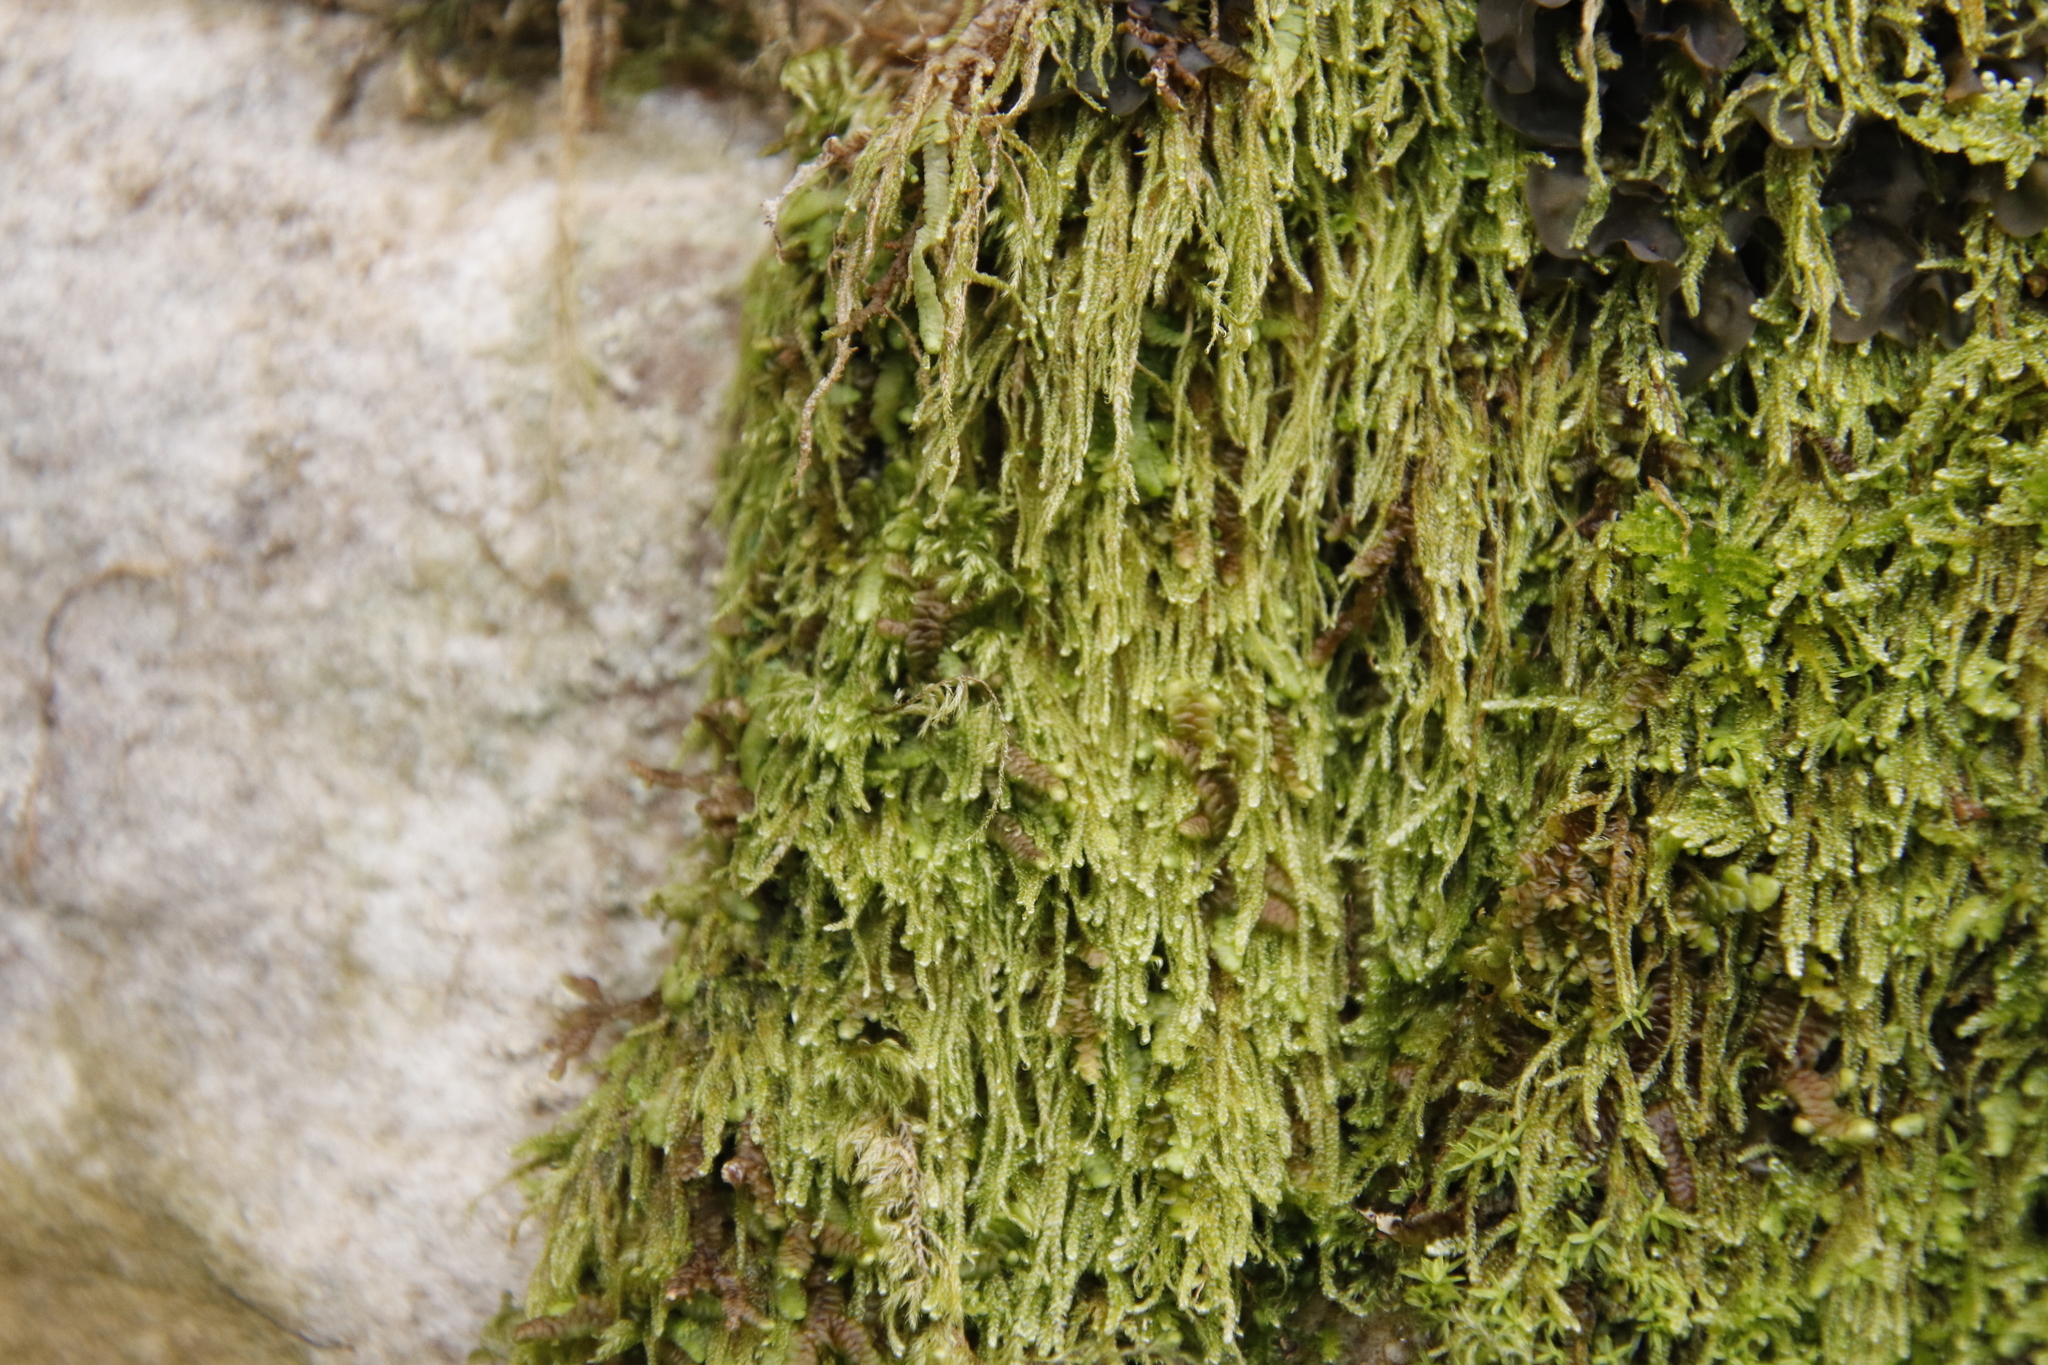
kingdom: Plantae
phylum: Bryophyta
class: Bryopsida
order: Hypnales
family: Hypnaceae
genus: Hypnum
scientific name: Hypnum cupressiforme
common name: Cypress-leaved plait-moss
